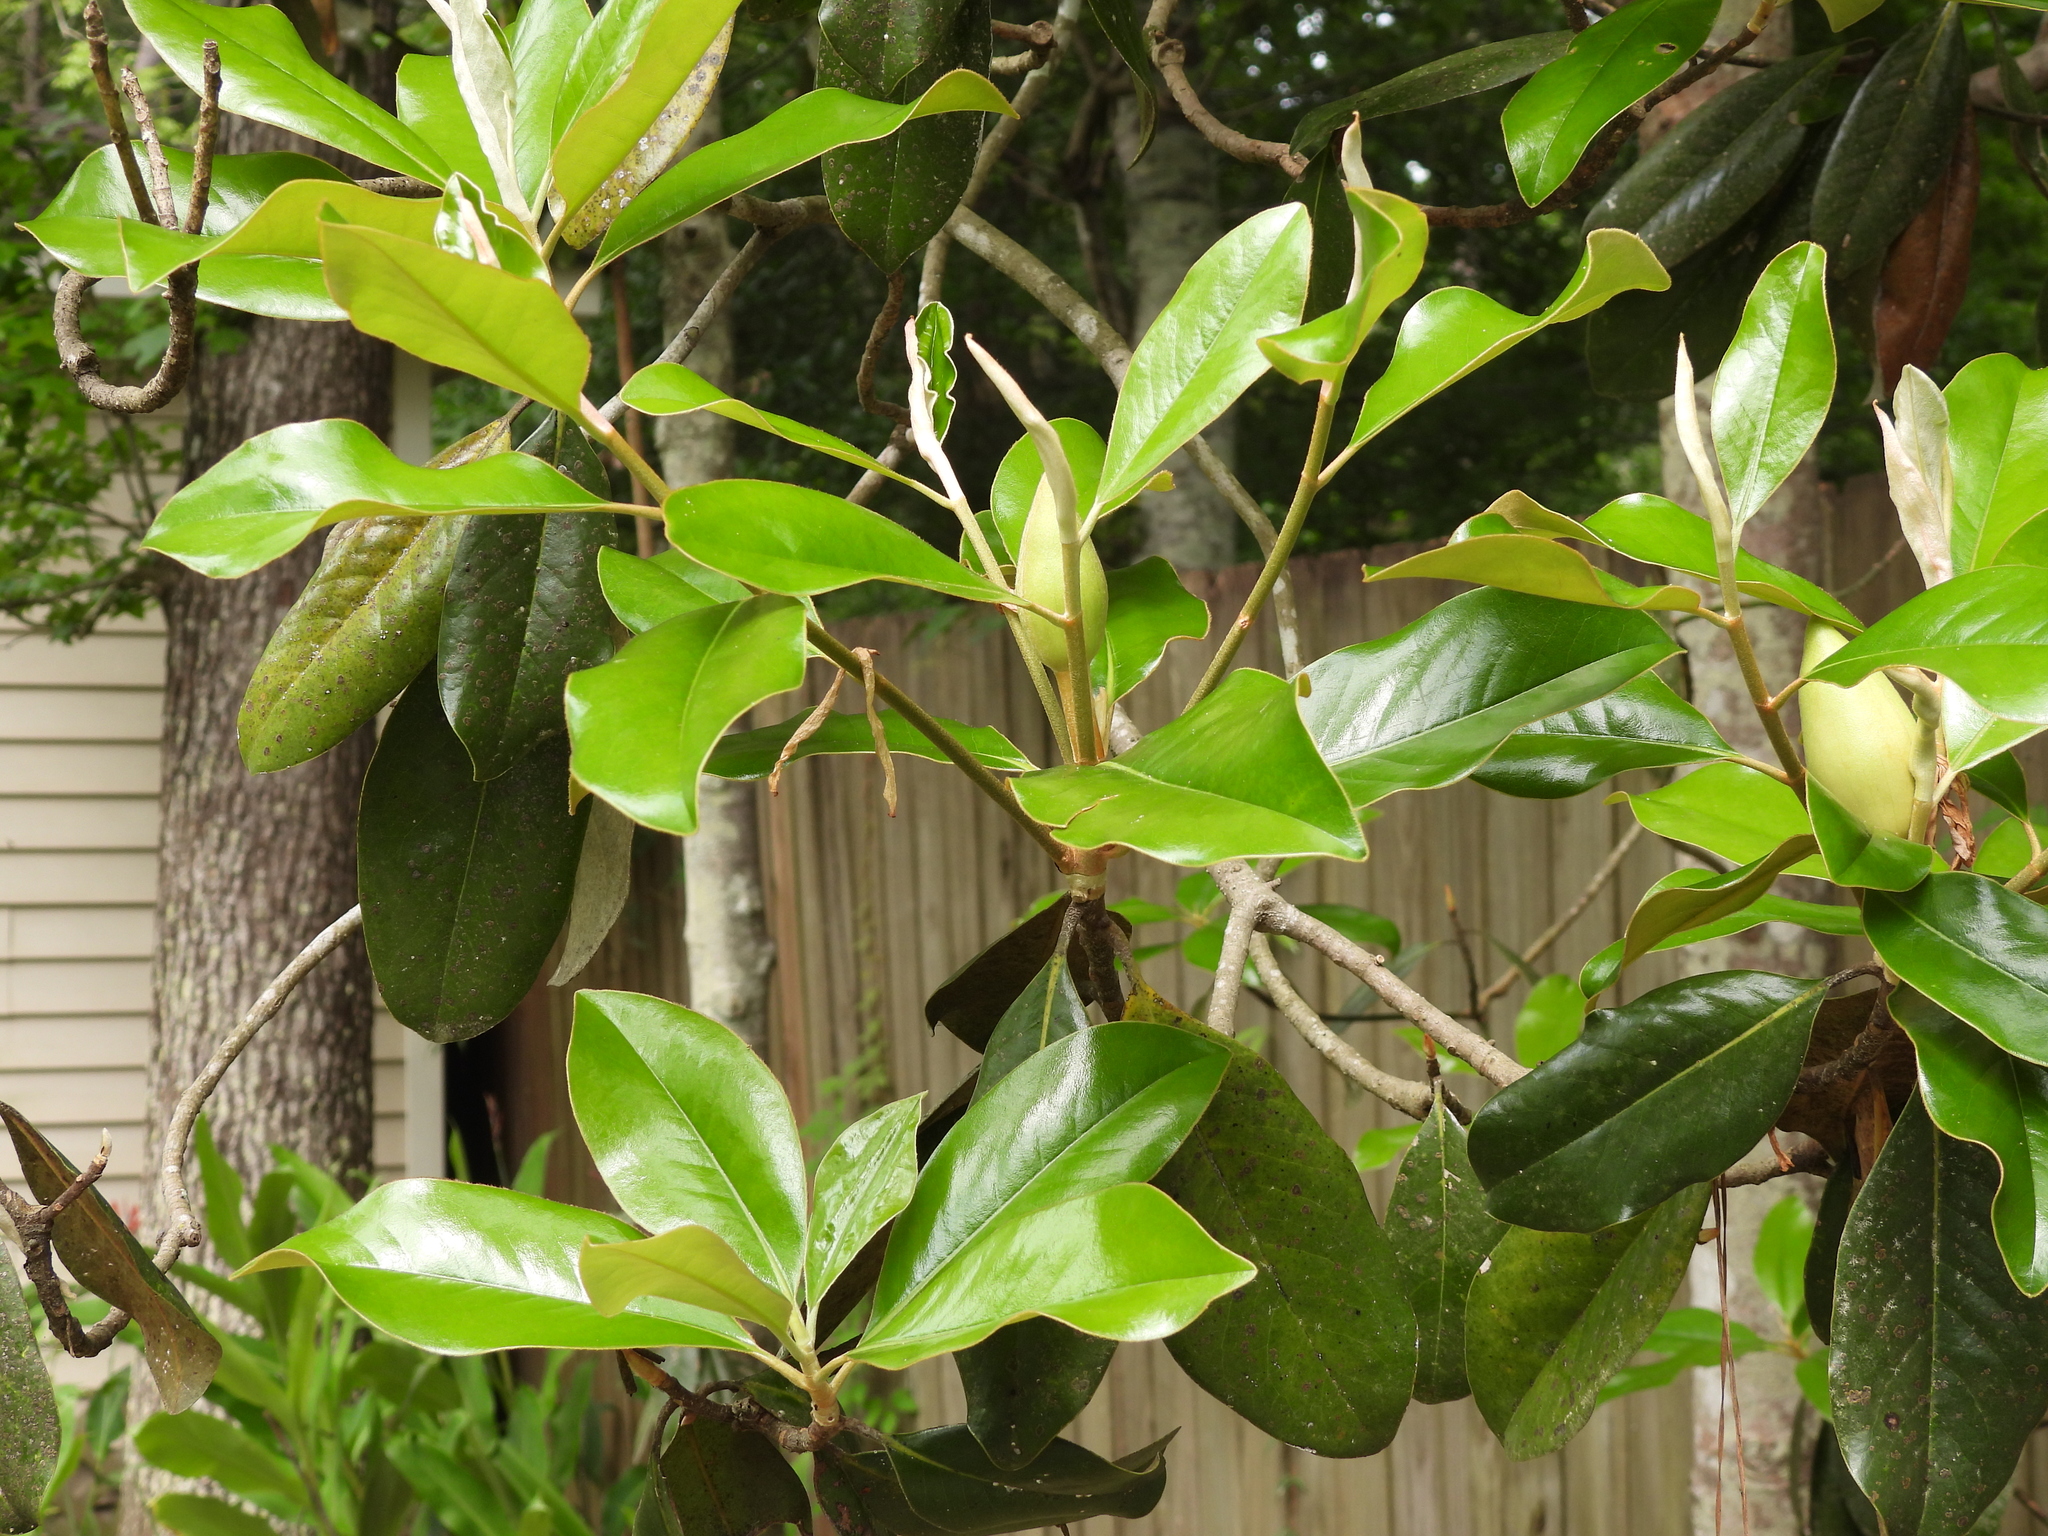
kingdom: Plantae
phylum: Tracheophyta
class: Magnoliopsida
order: Magnoliales
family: Magnoliaceae
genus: Magnolia
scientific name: Magnolia grandiflora
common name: Southern magnolia
